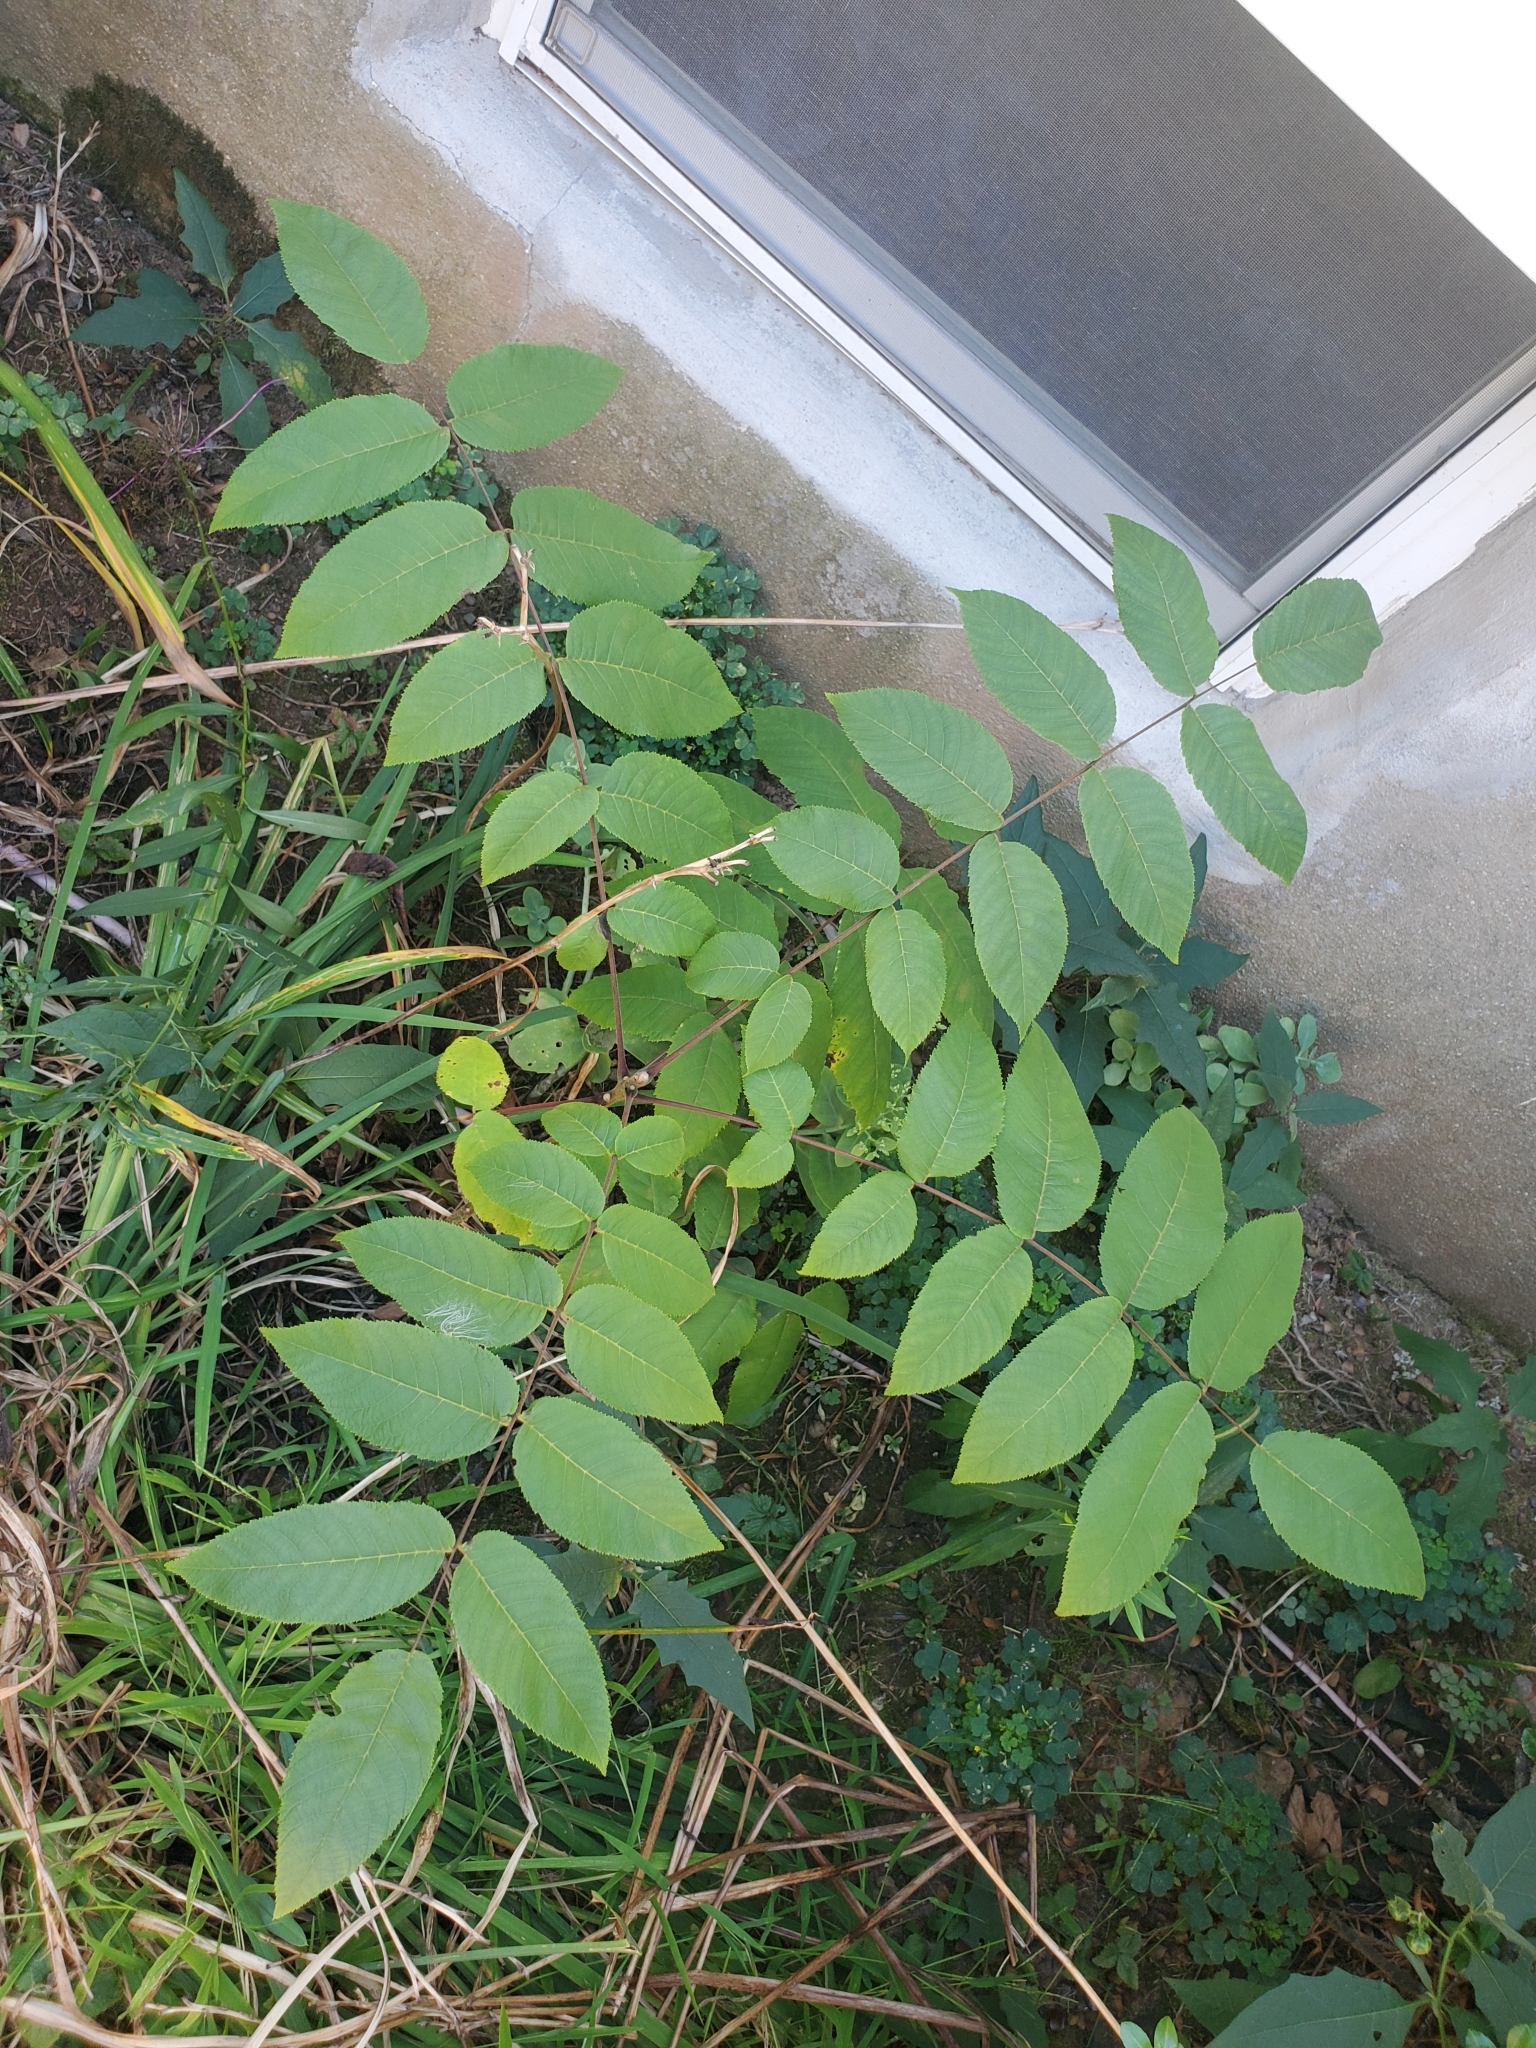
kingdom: Plantae
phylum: Tracheophyta
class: Magnoliopsida
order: Fagales
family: Juglandaceae
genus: Juglans
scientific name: Juglans nigra
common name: Black walnut
